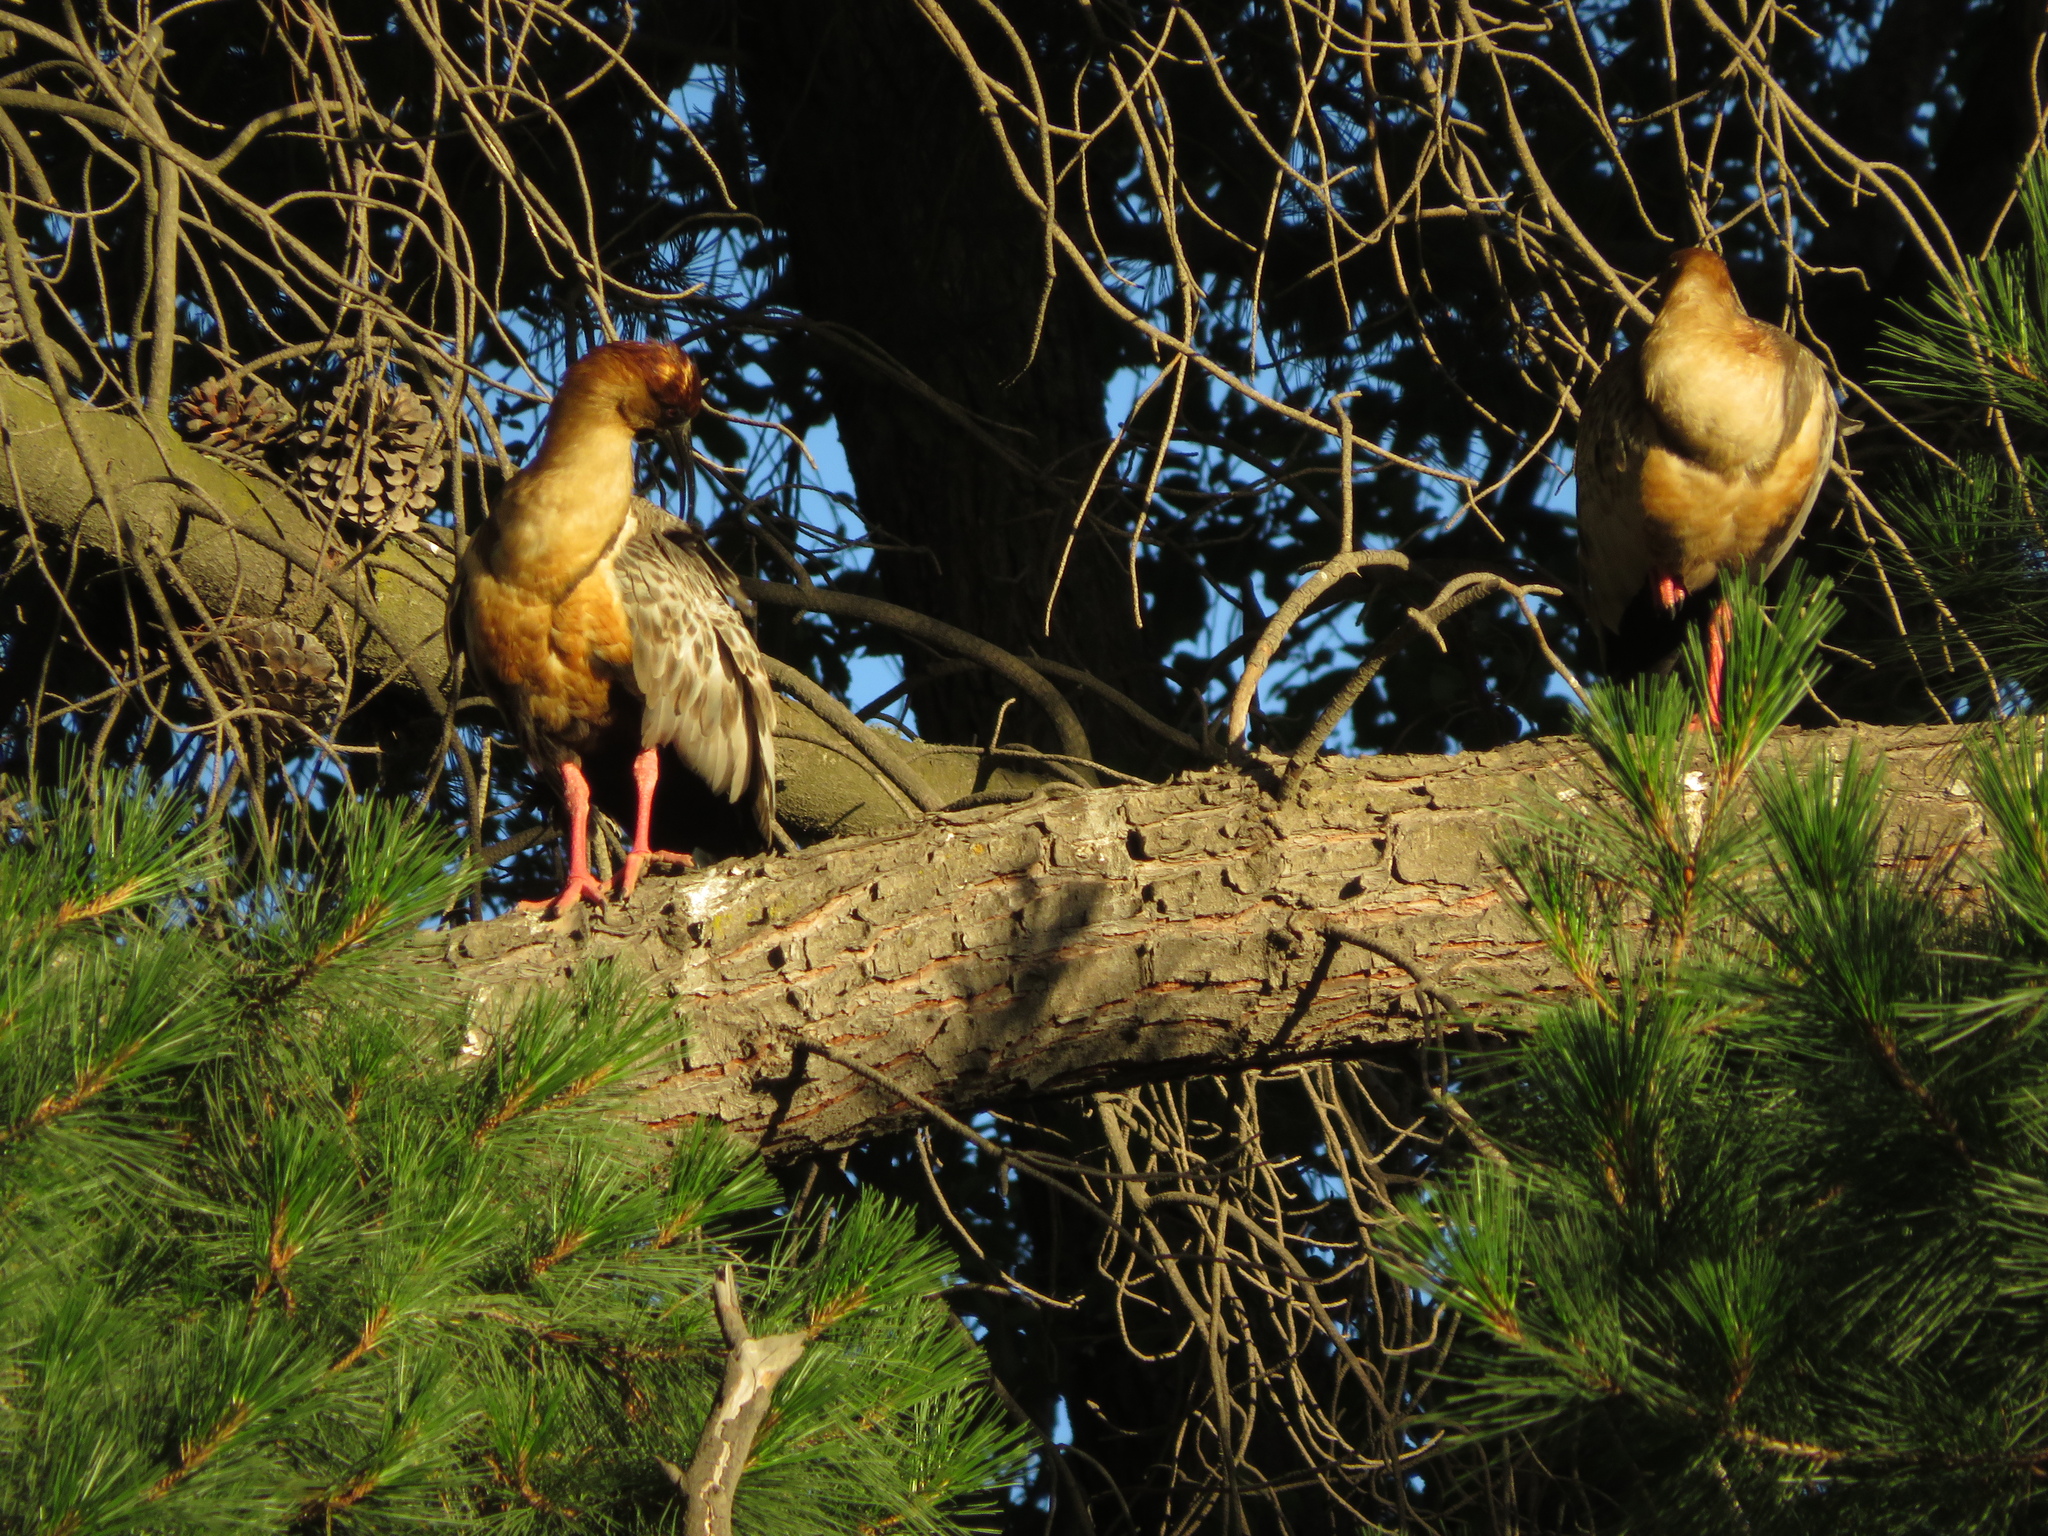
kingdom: Animalia
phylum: Chordata
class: Aves
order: Pelecaniformes
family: Threskiornithidae
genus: Theristicus
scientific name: Theristicus melanopis
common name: Black-faced ibis
